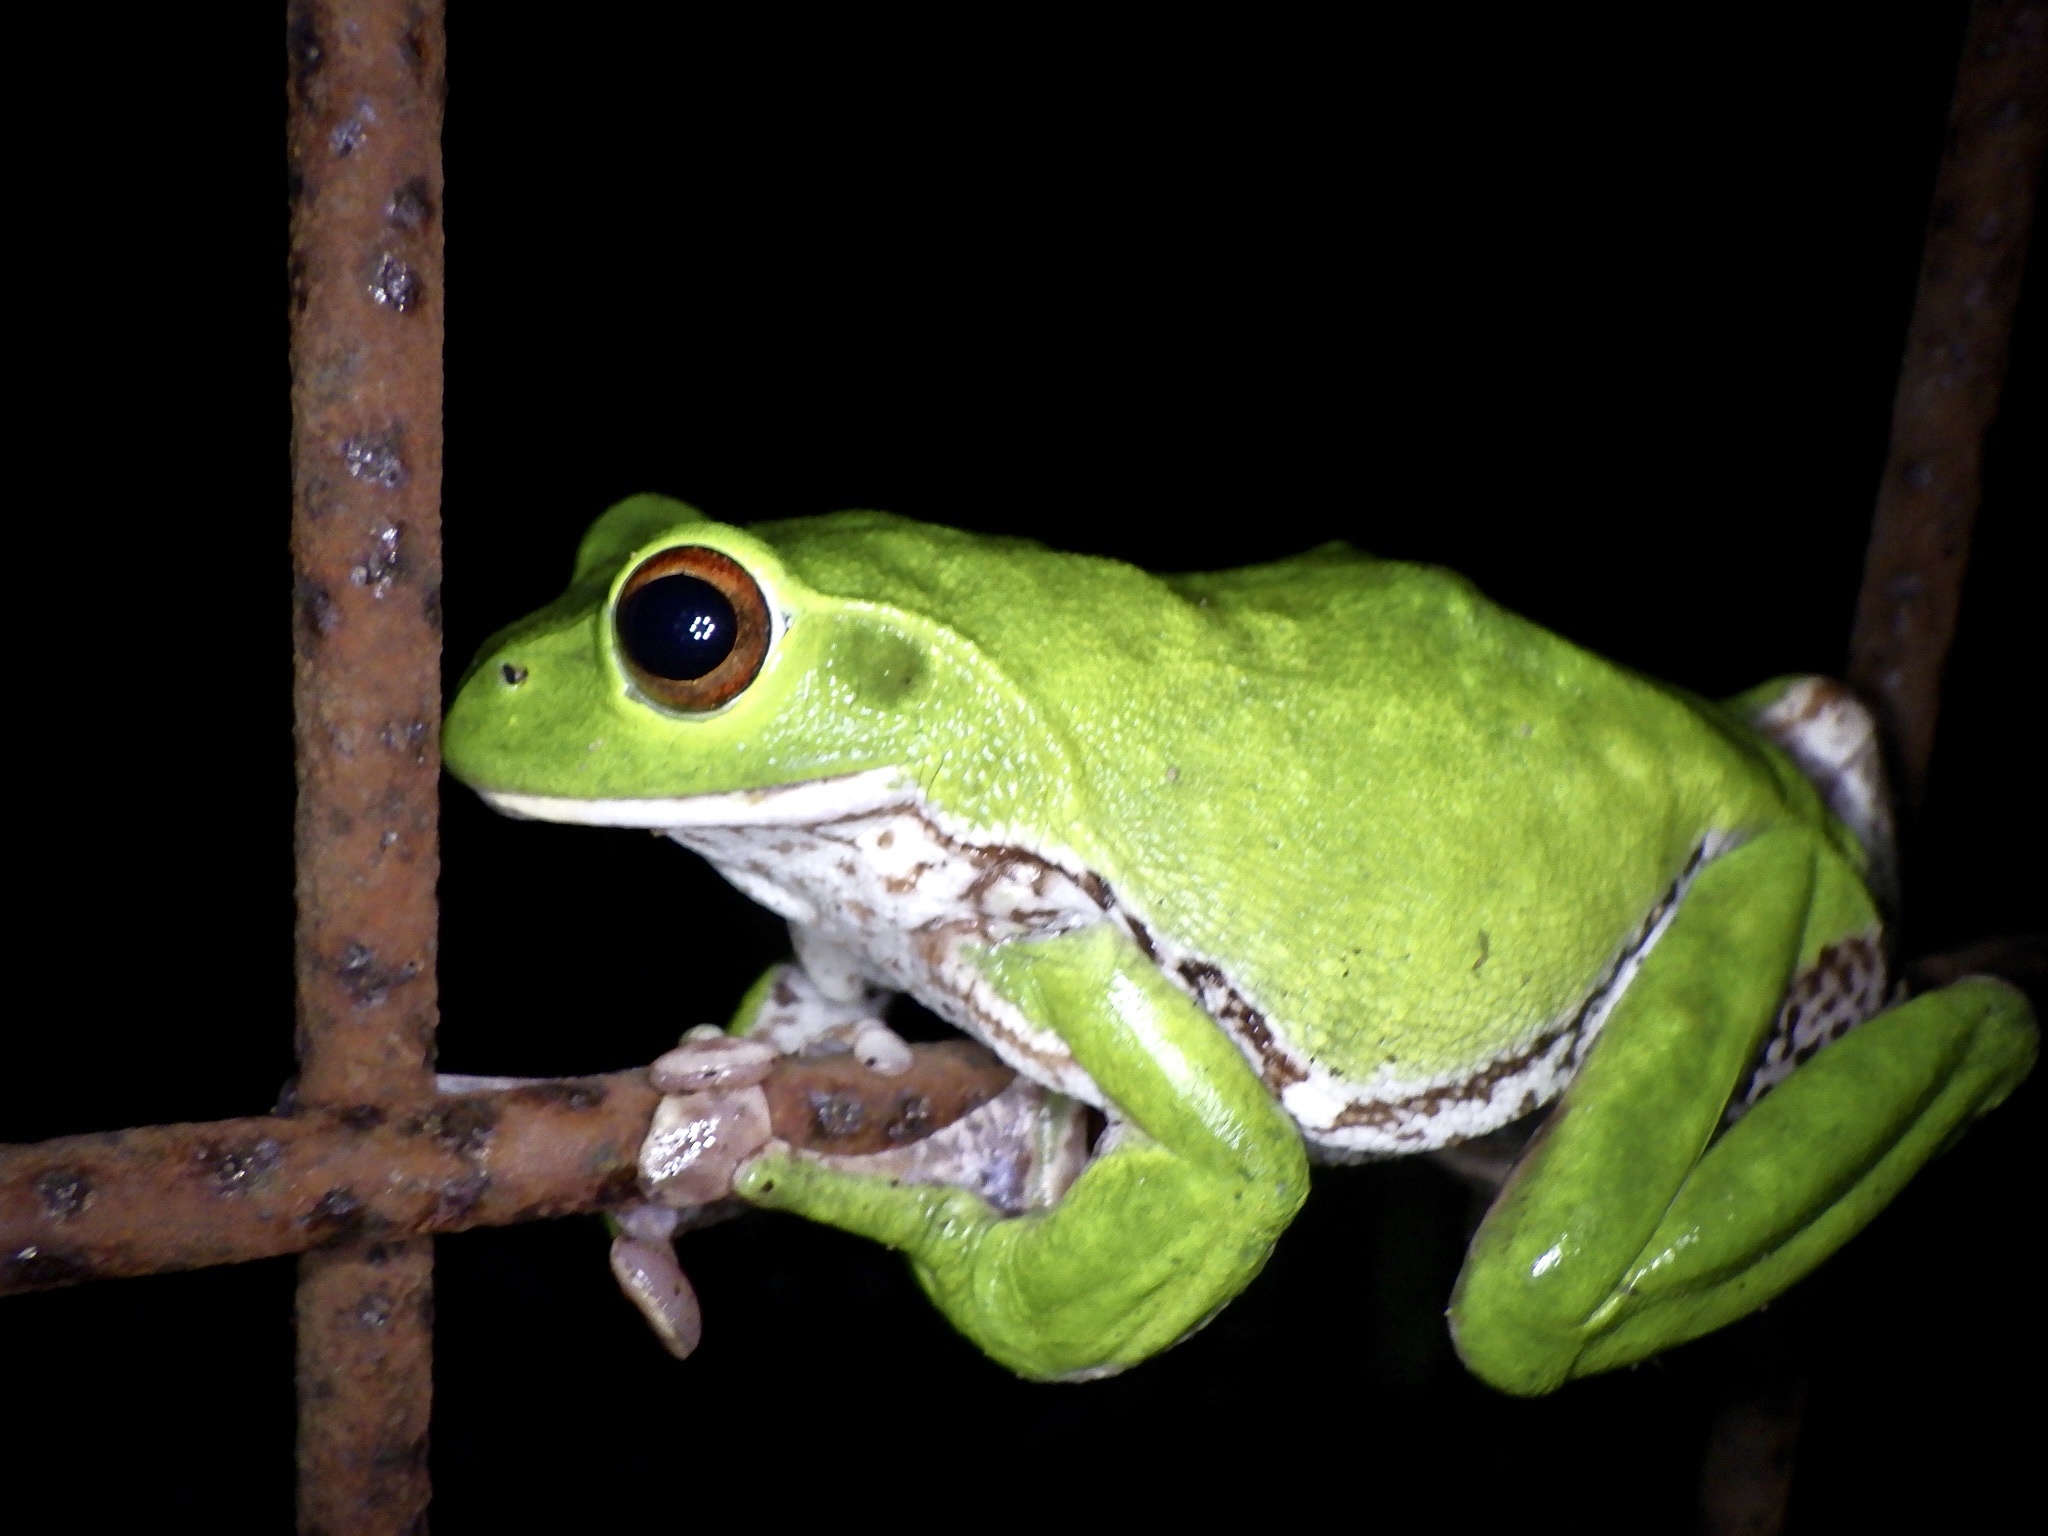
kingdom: Animalia
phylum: Chordata
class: Amphibia
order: Anura
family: Rhacophoridae
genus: Zhangixalus
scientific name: Zhangixalus arboreus
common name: Forest green tree frog
